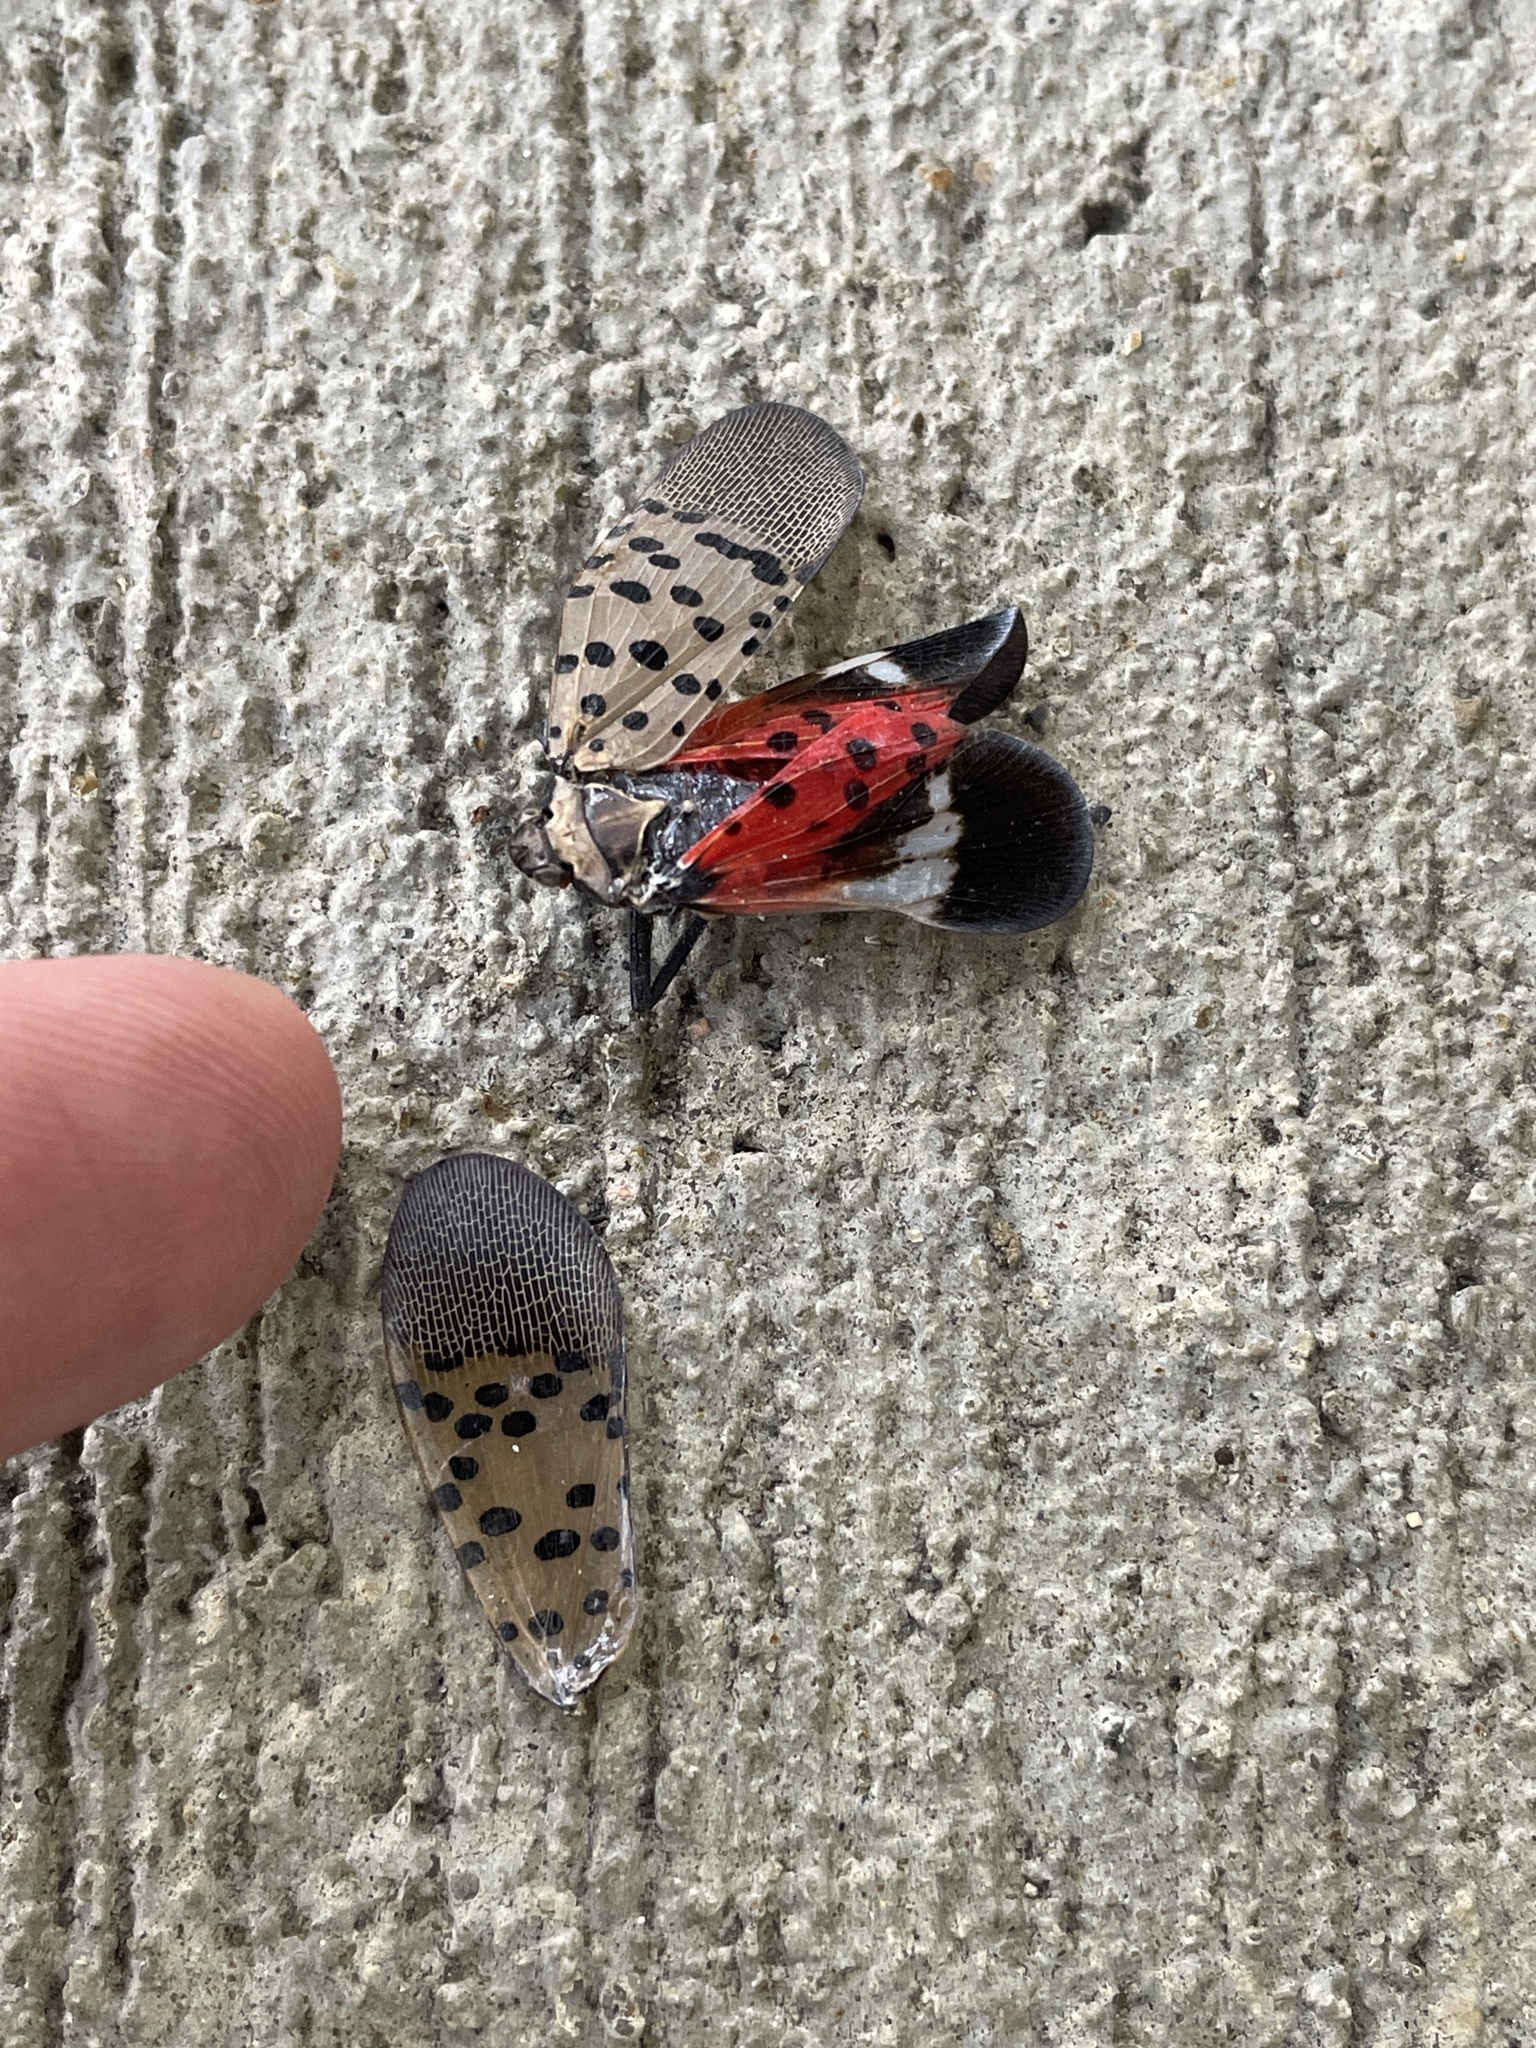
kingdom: Animalia
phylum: Arthropoda
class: Insecta
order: Hemiptera
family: Fulgoridae
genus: Lycorma
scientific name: Lycorma delicatula
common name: Spotted lanternfly
